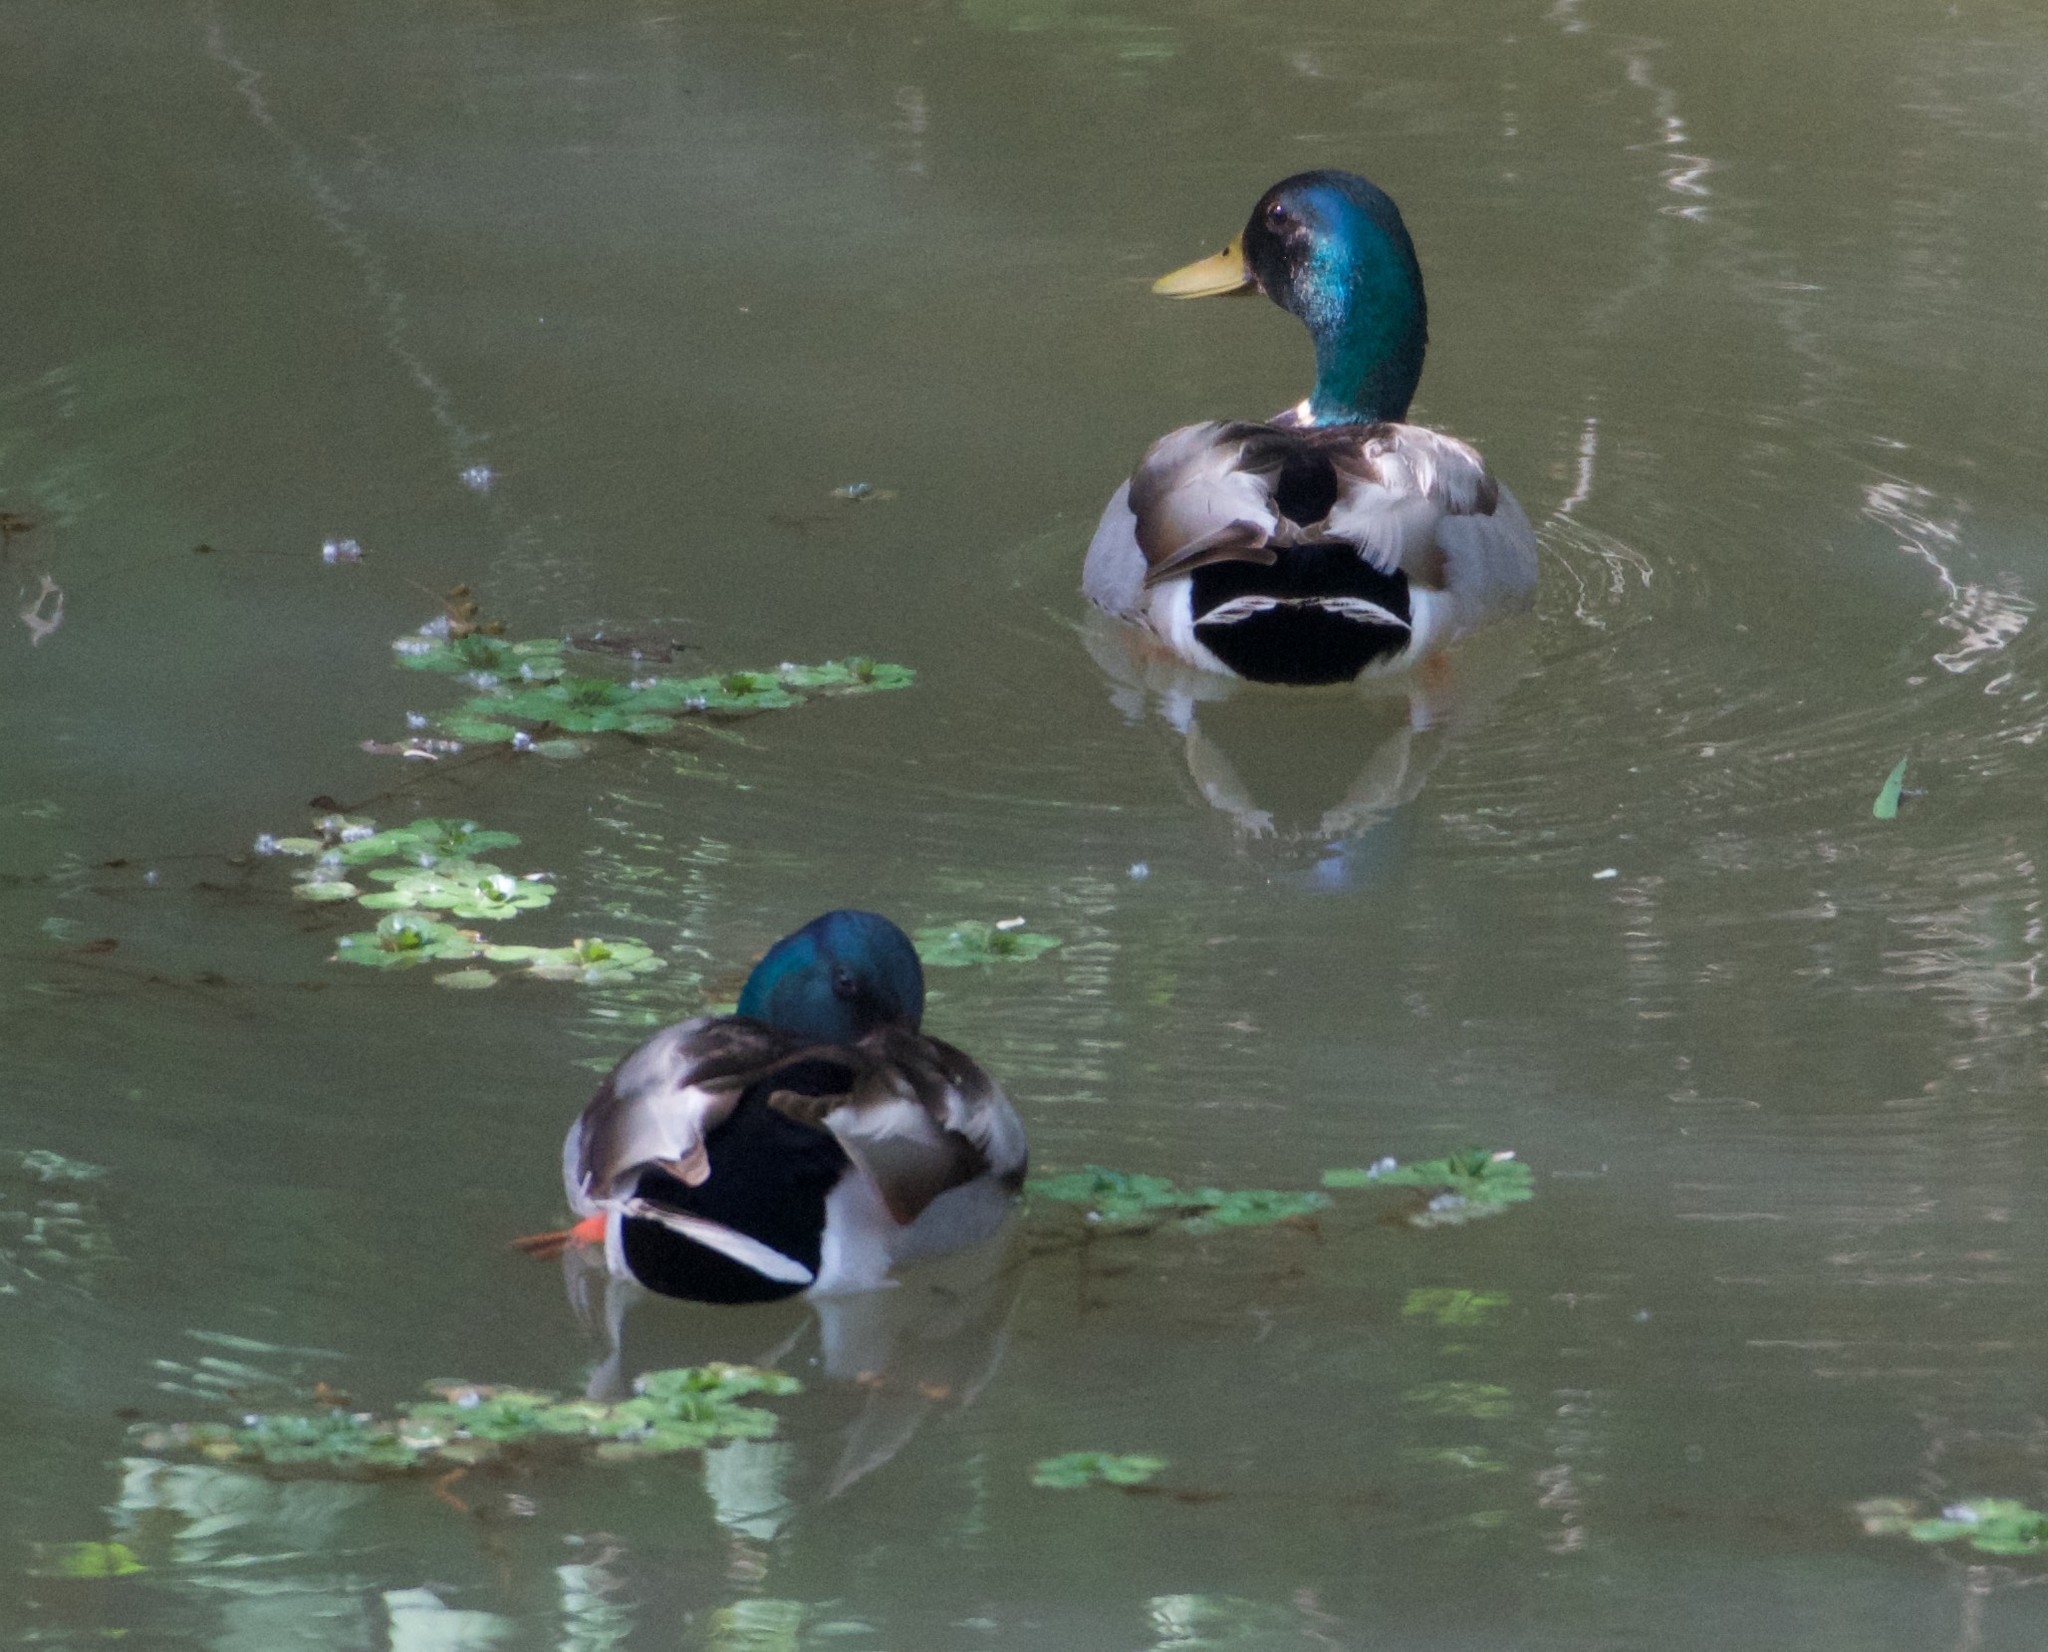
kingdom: Animalia
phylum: Chordata
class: Aves
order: Anseriformes
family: Anatidae
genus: Anas
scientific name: Anas platyrhynchos
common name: Mallard
